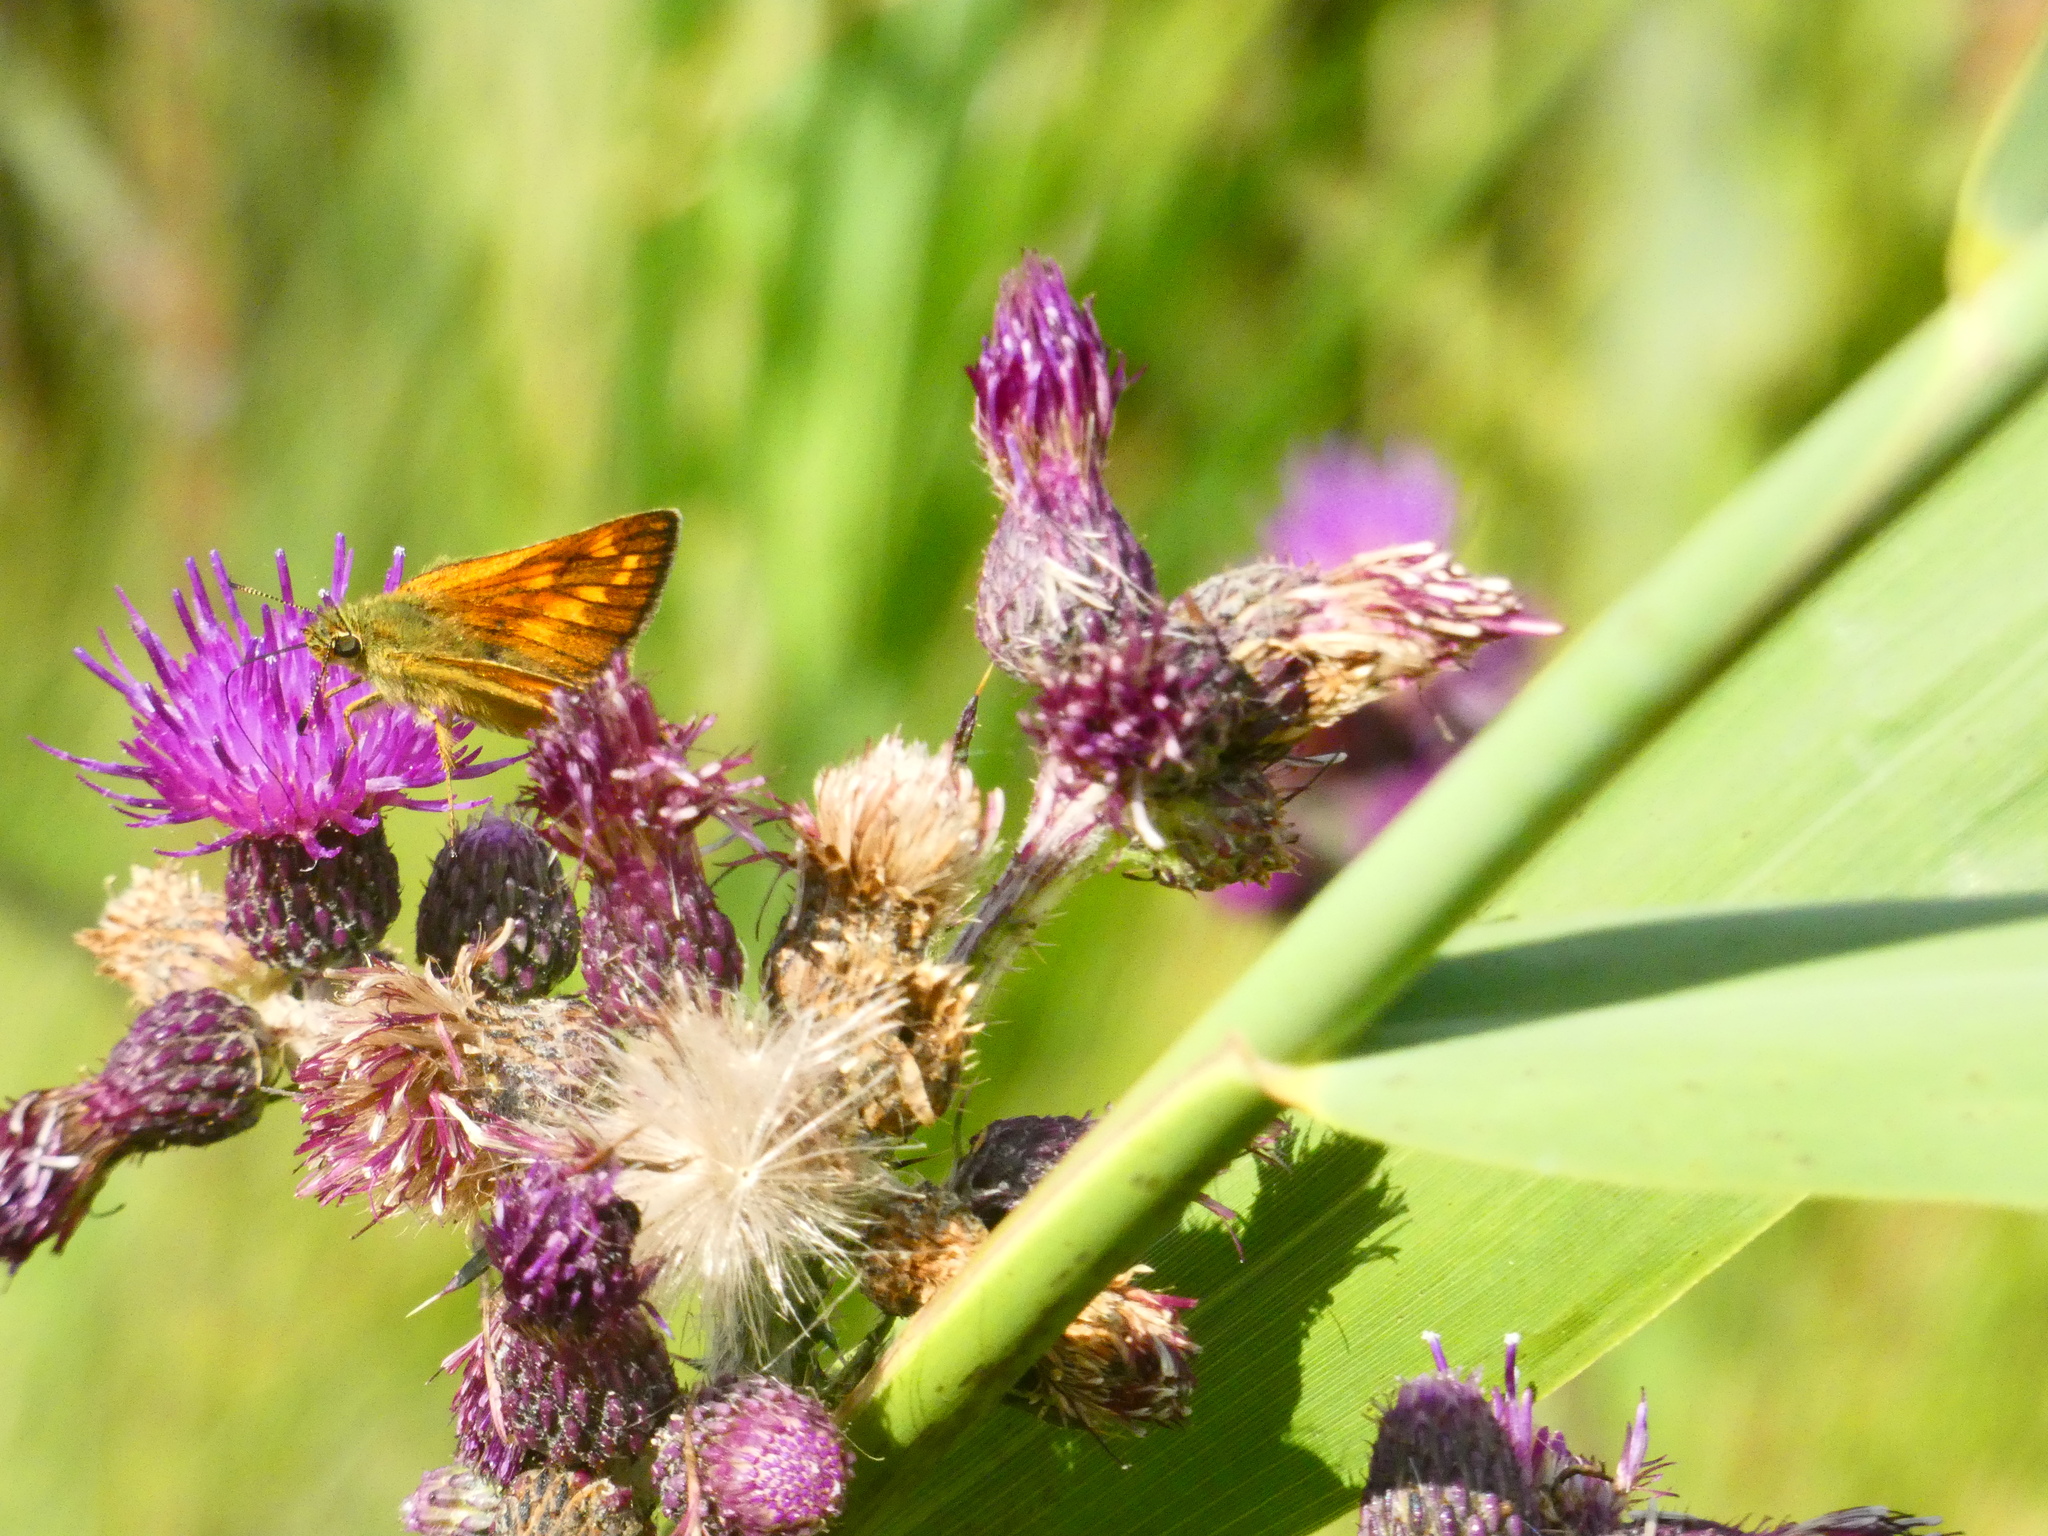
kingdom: Animalia
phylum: Arthropoda
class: Insecta
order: Lepidoptera
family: Hesperiidae
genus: Ochlodes
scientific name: Ochlodes venata
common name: Large skipper
